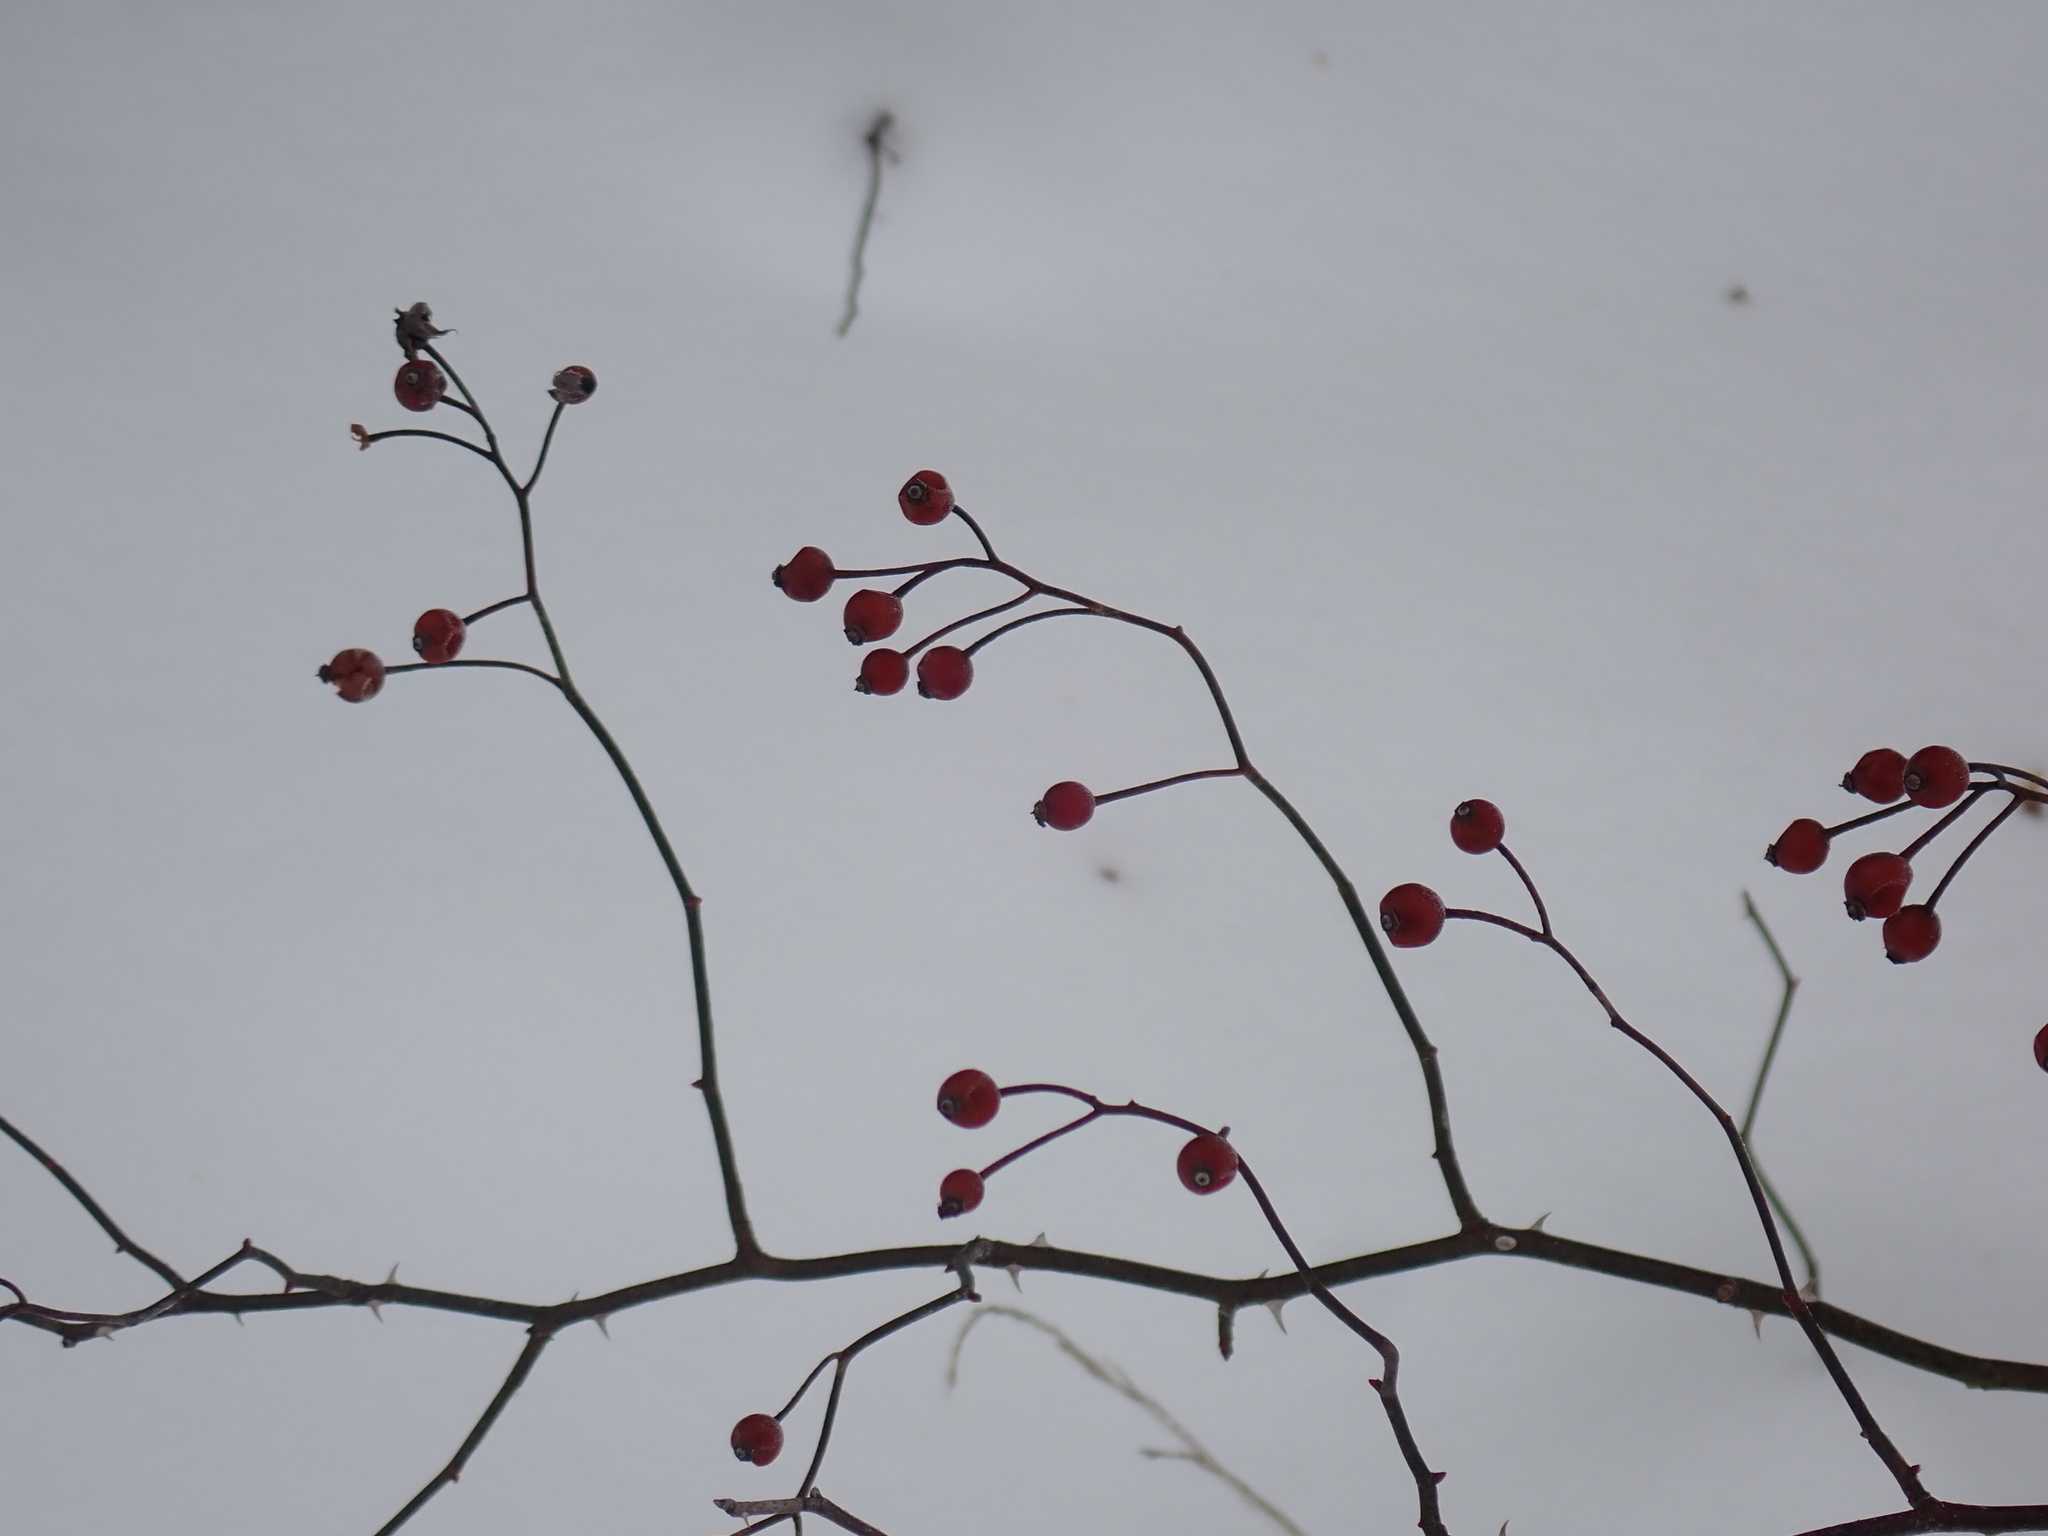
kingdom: Plantae
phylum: Tracheophyta
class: Magnoliopsida
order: Rosales
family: Rosaceae
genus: Rosa
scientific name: Rosa multiflora
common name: Multiflora rose
